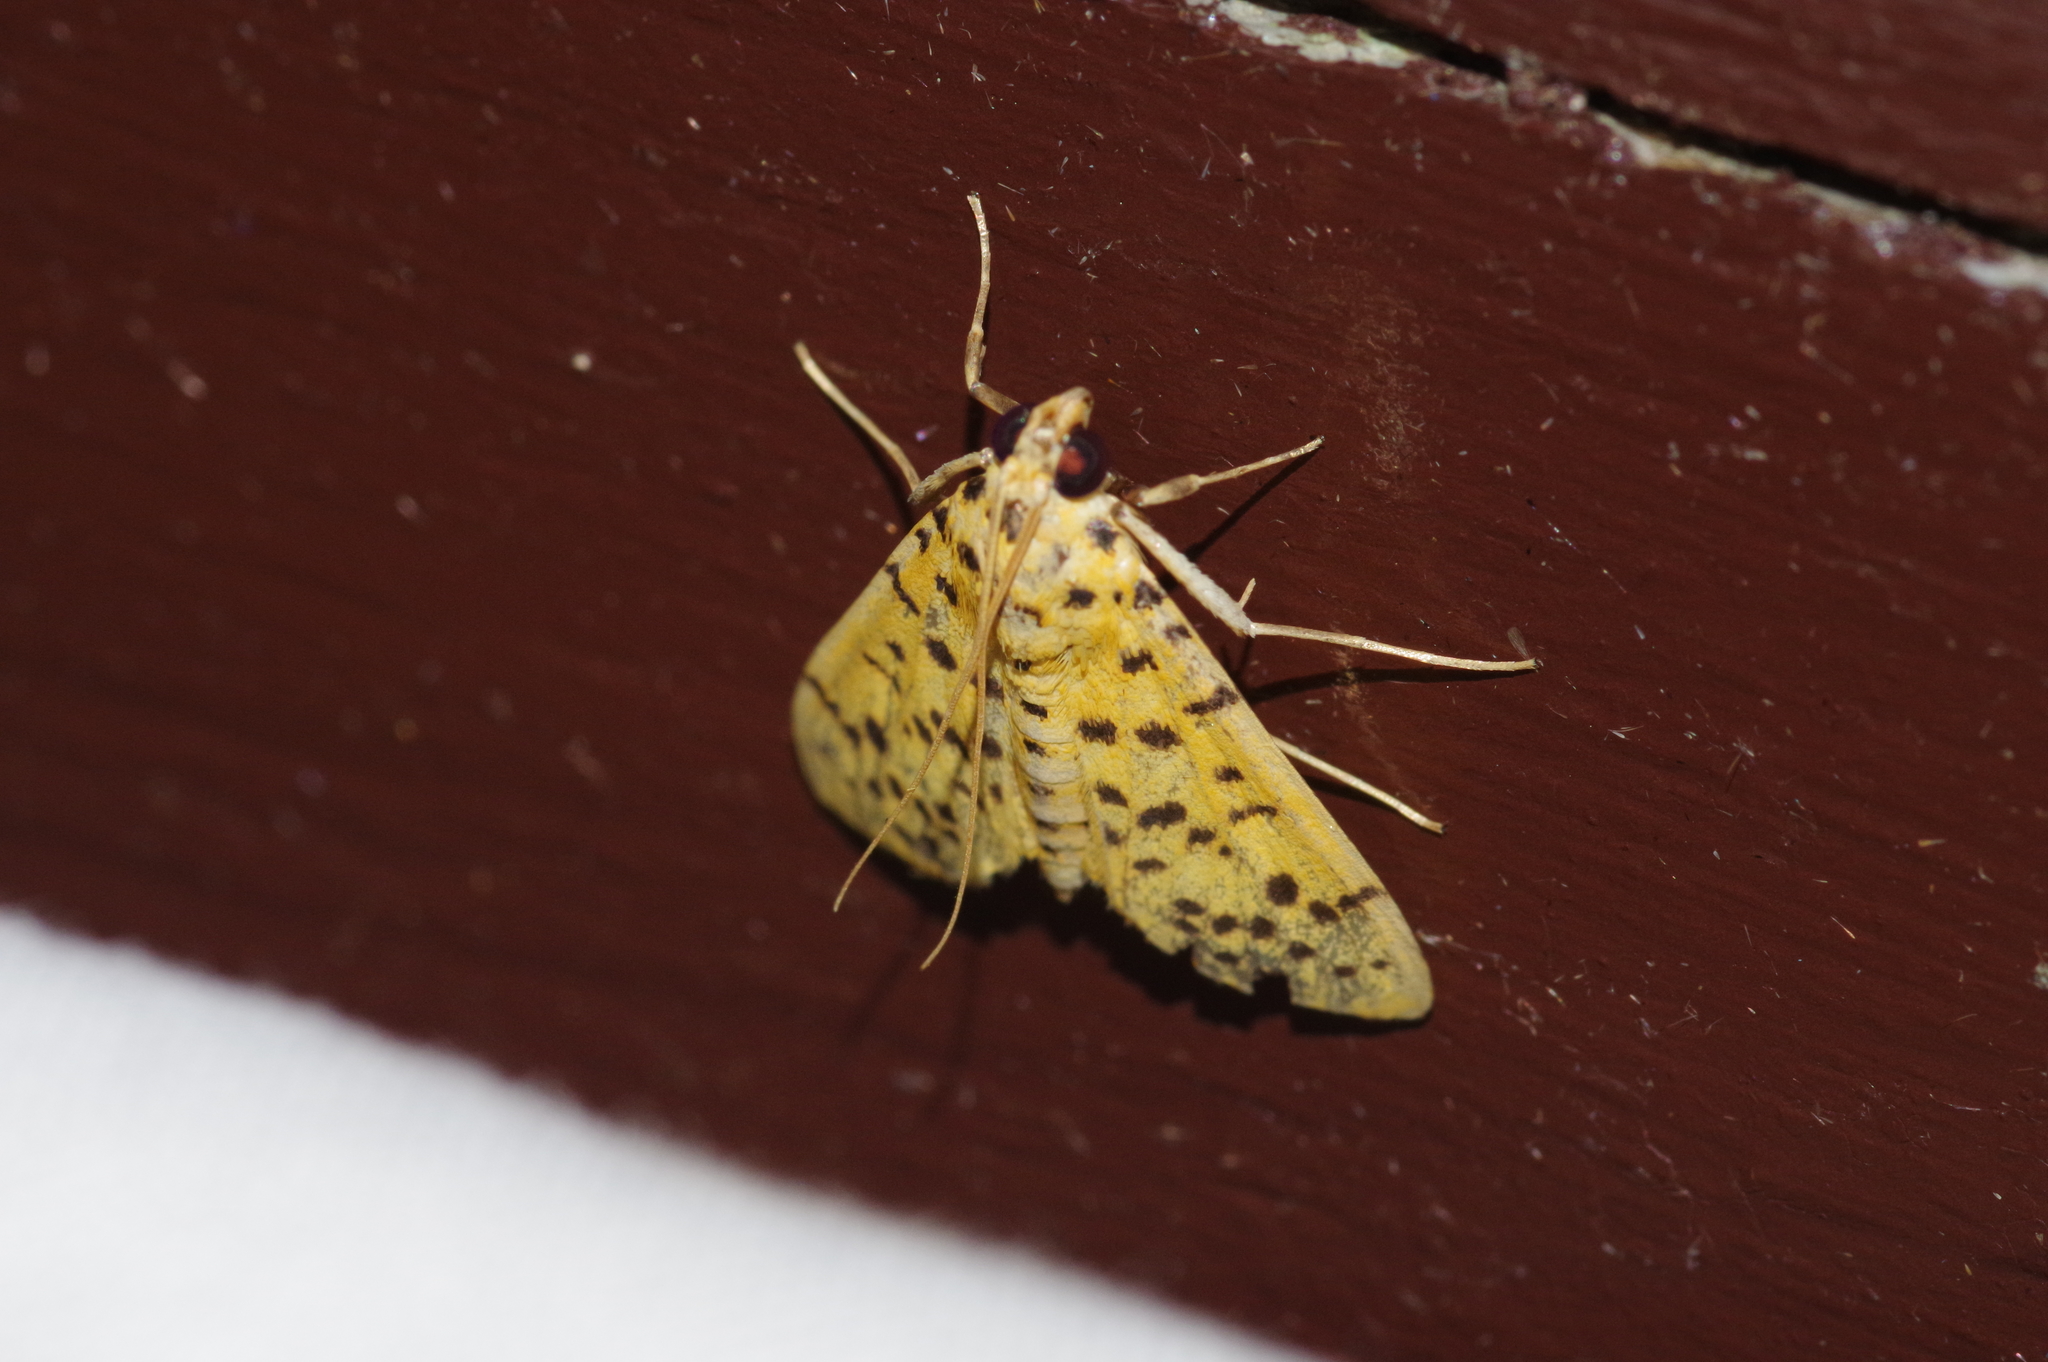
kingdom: Animalia
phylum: Arthropoda
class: Insecta
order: Lepidoptera
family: Crambidae
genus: Conogethes
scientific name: Conogethes punctiferalis
